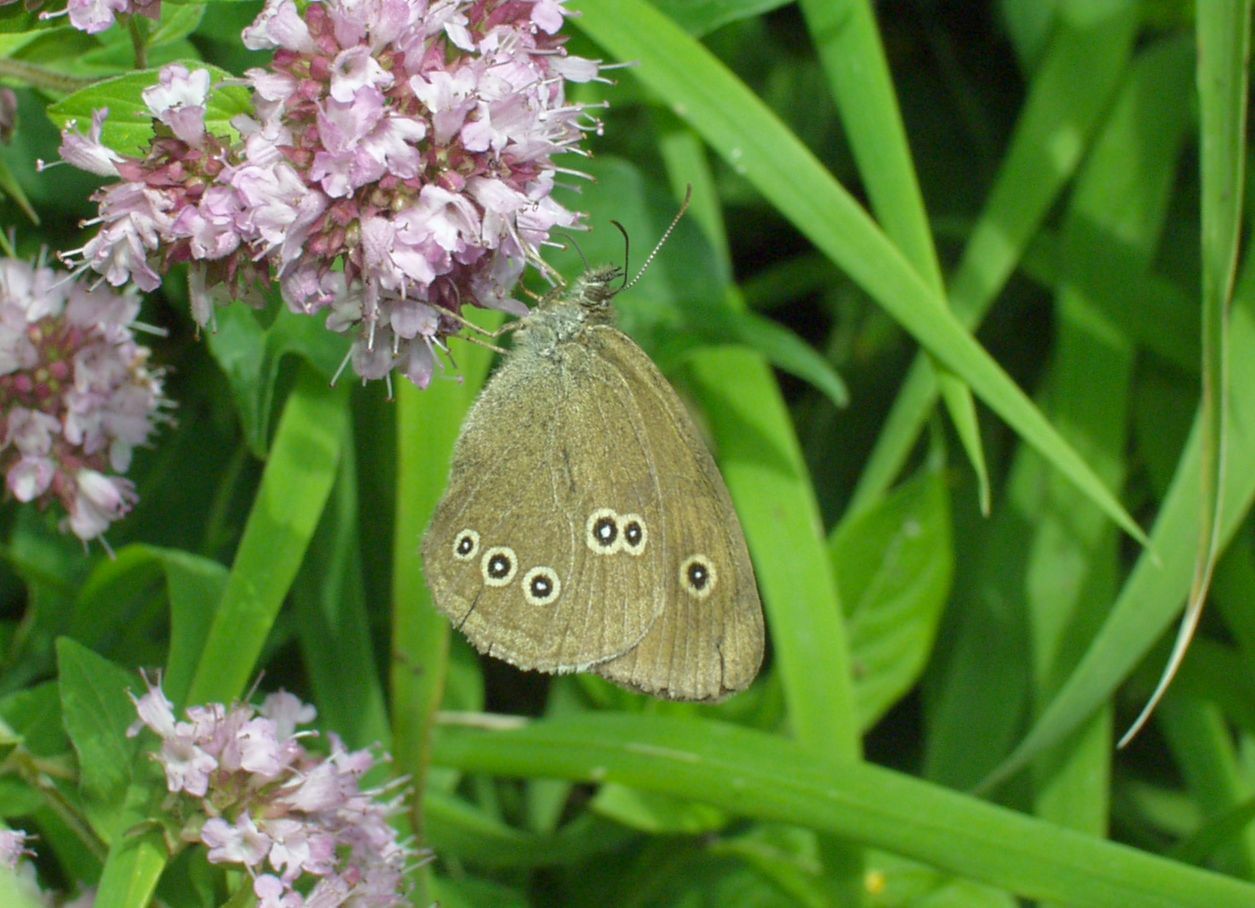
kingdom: Animalia
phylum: Arthropoda
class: Insecta
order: Lepidoptera
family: Nymphalidae
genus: Aphantopus
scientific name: Aphantopus hyperantus
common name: Ringlet
